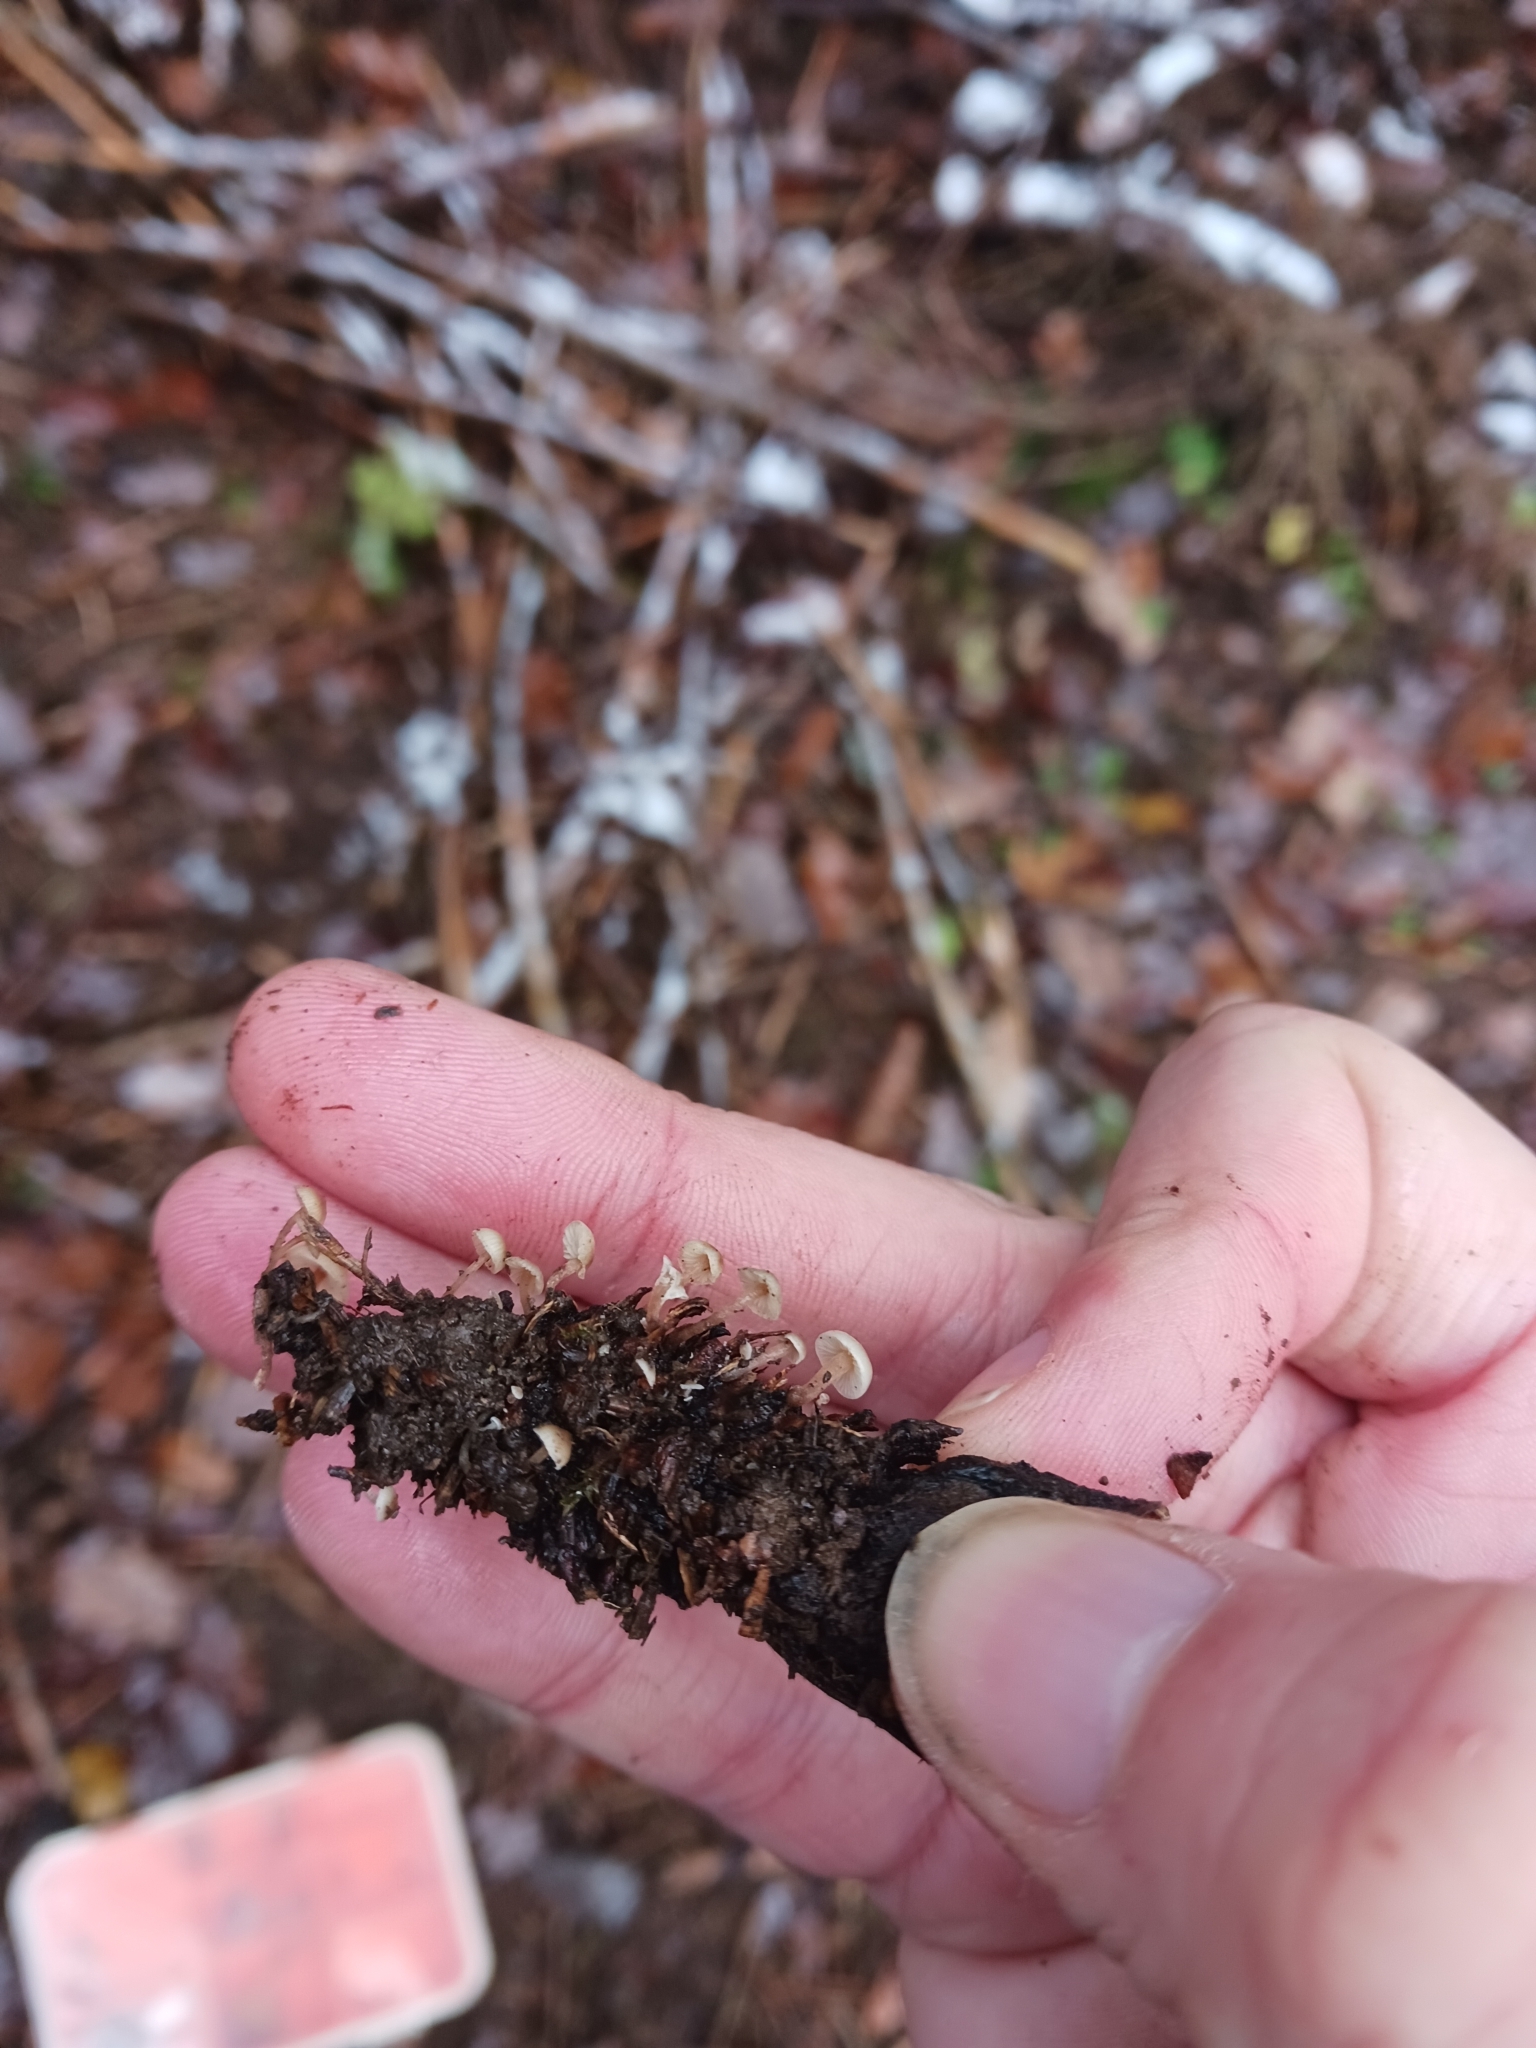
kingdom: Fungi
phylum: Basidiomycota
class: Agaricomycetes
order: Agaricales
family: Marasmiaceae
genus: Baeospora
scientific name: Baeospora myosura
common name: Conifercone cap
